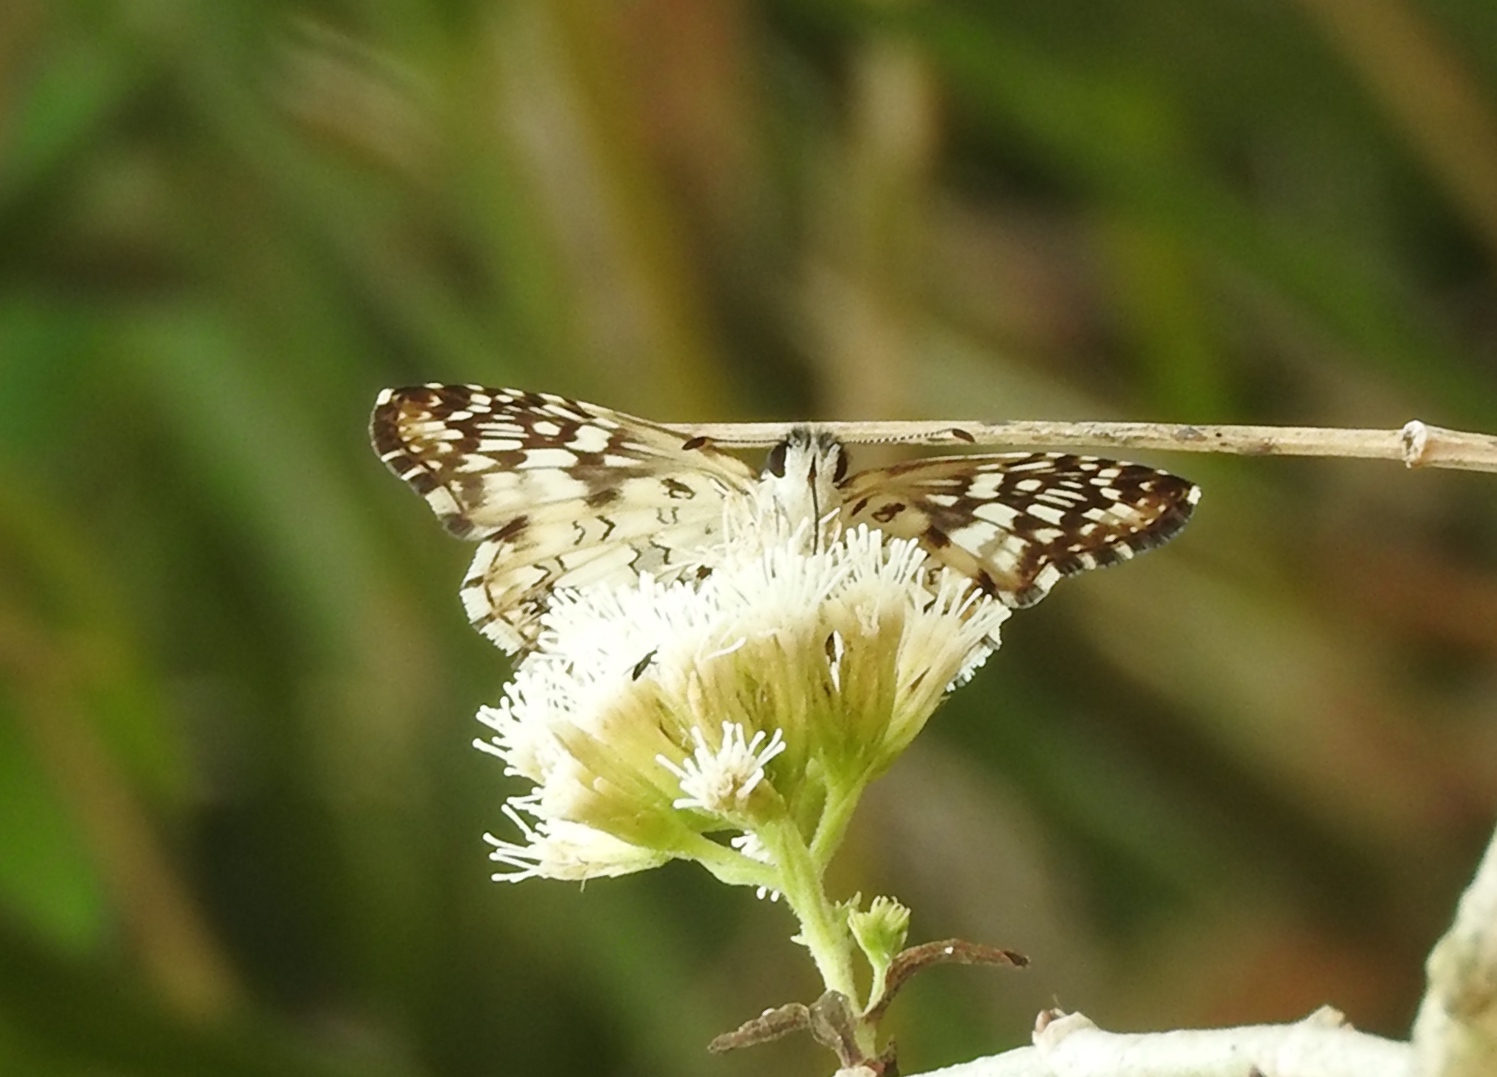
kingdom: Animalia
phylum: Arthropoda
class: Insecta
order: Lepidoptera
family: Hesperiidae
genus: Pyrgus
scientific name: Pyrgus oileus
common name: Tropical checkered-skipper
